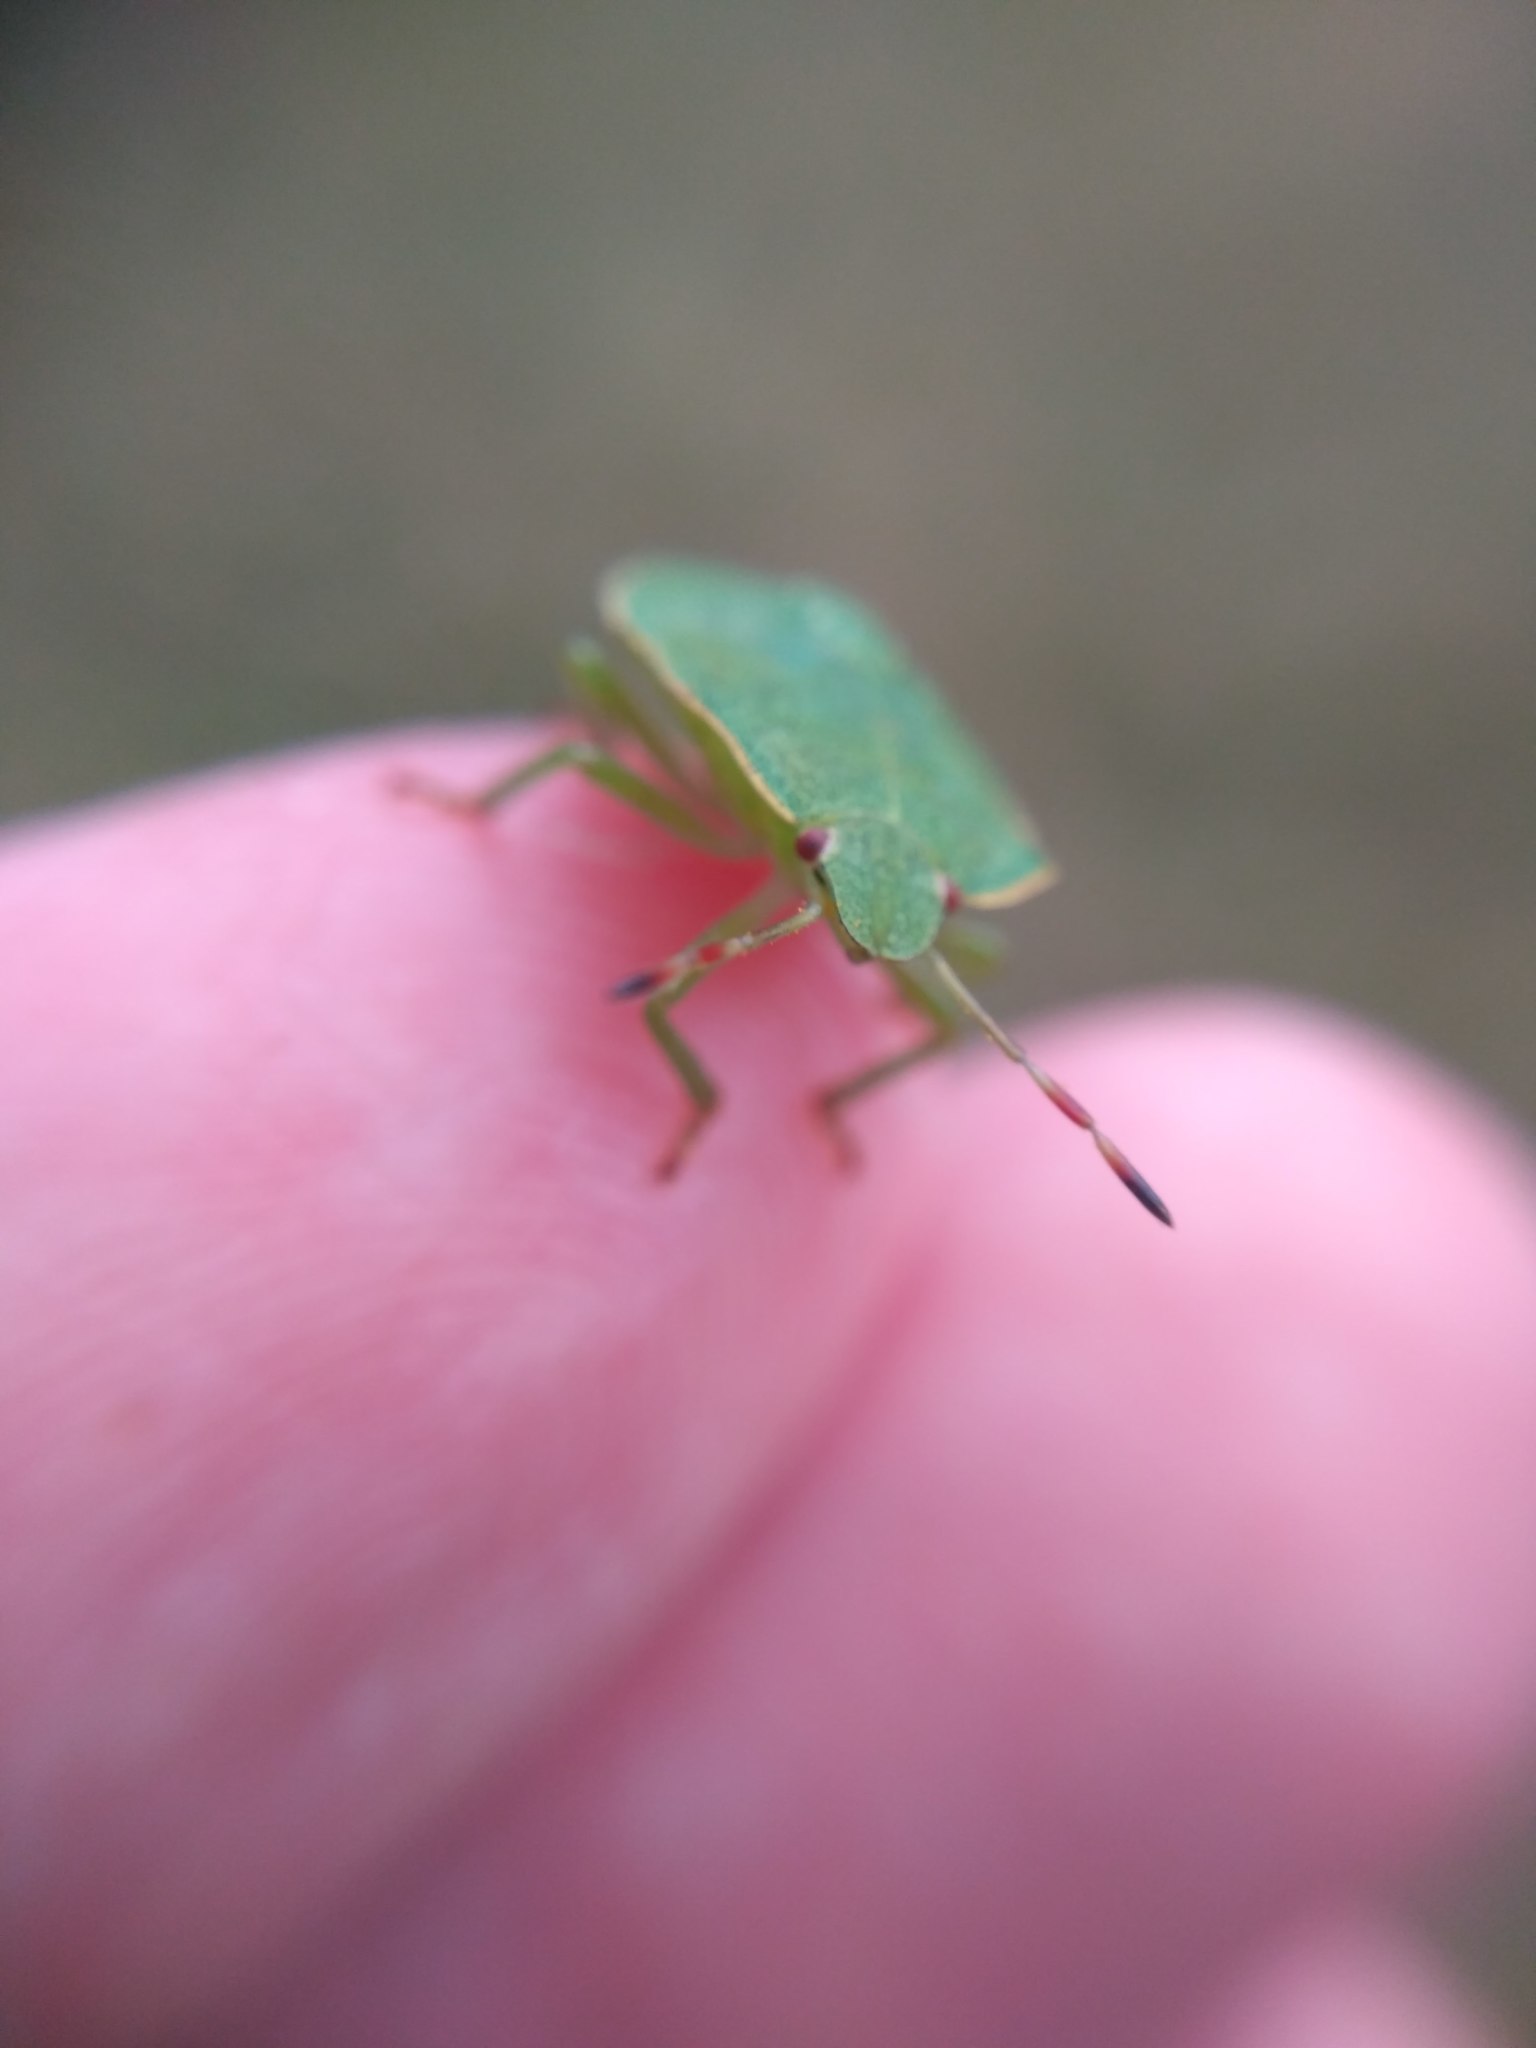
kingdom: Animalia
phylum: Arthropoda
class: Insecta
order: Hemiptera
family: Pentatomidae
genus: Palomena
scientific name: Palomena prasina
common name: Green shieldbug
